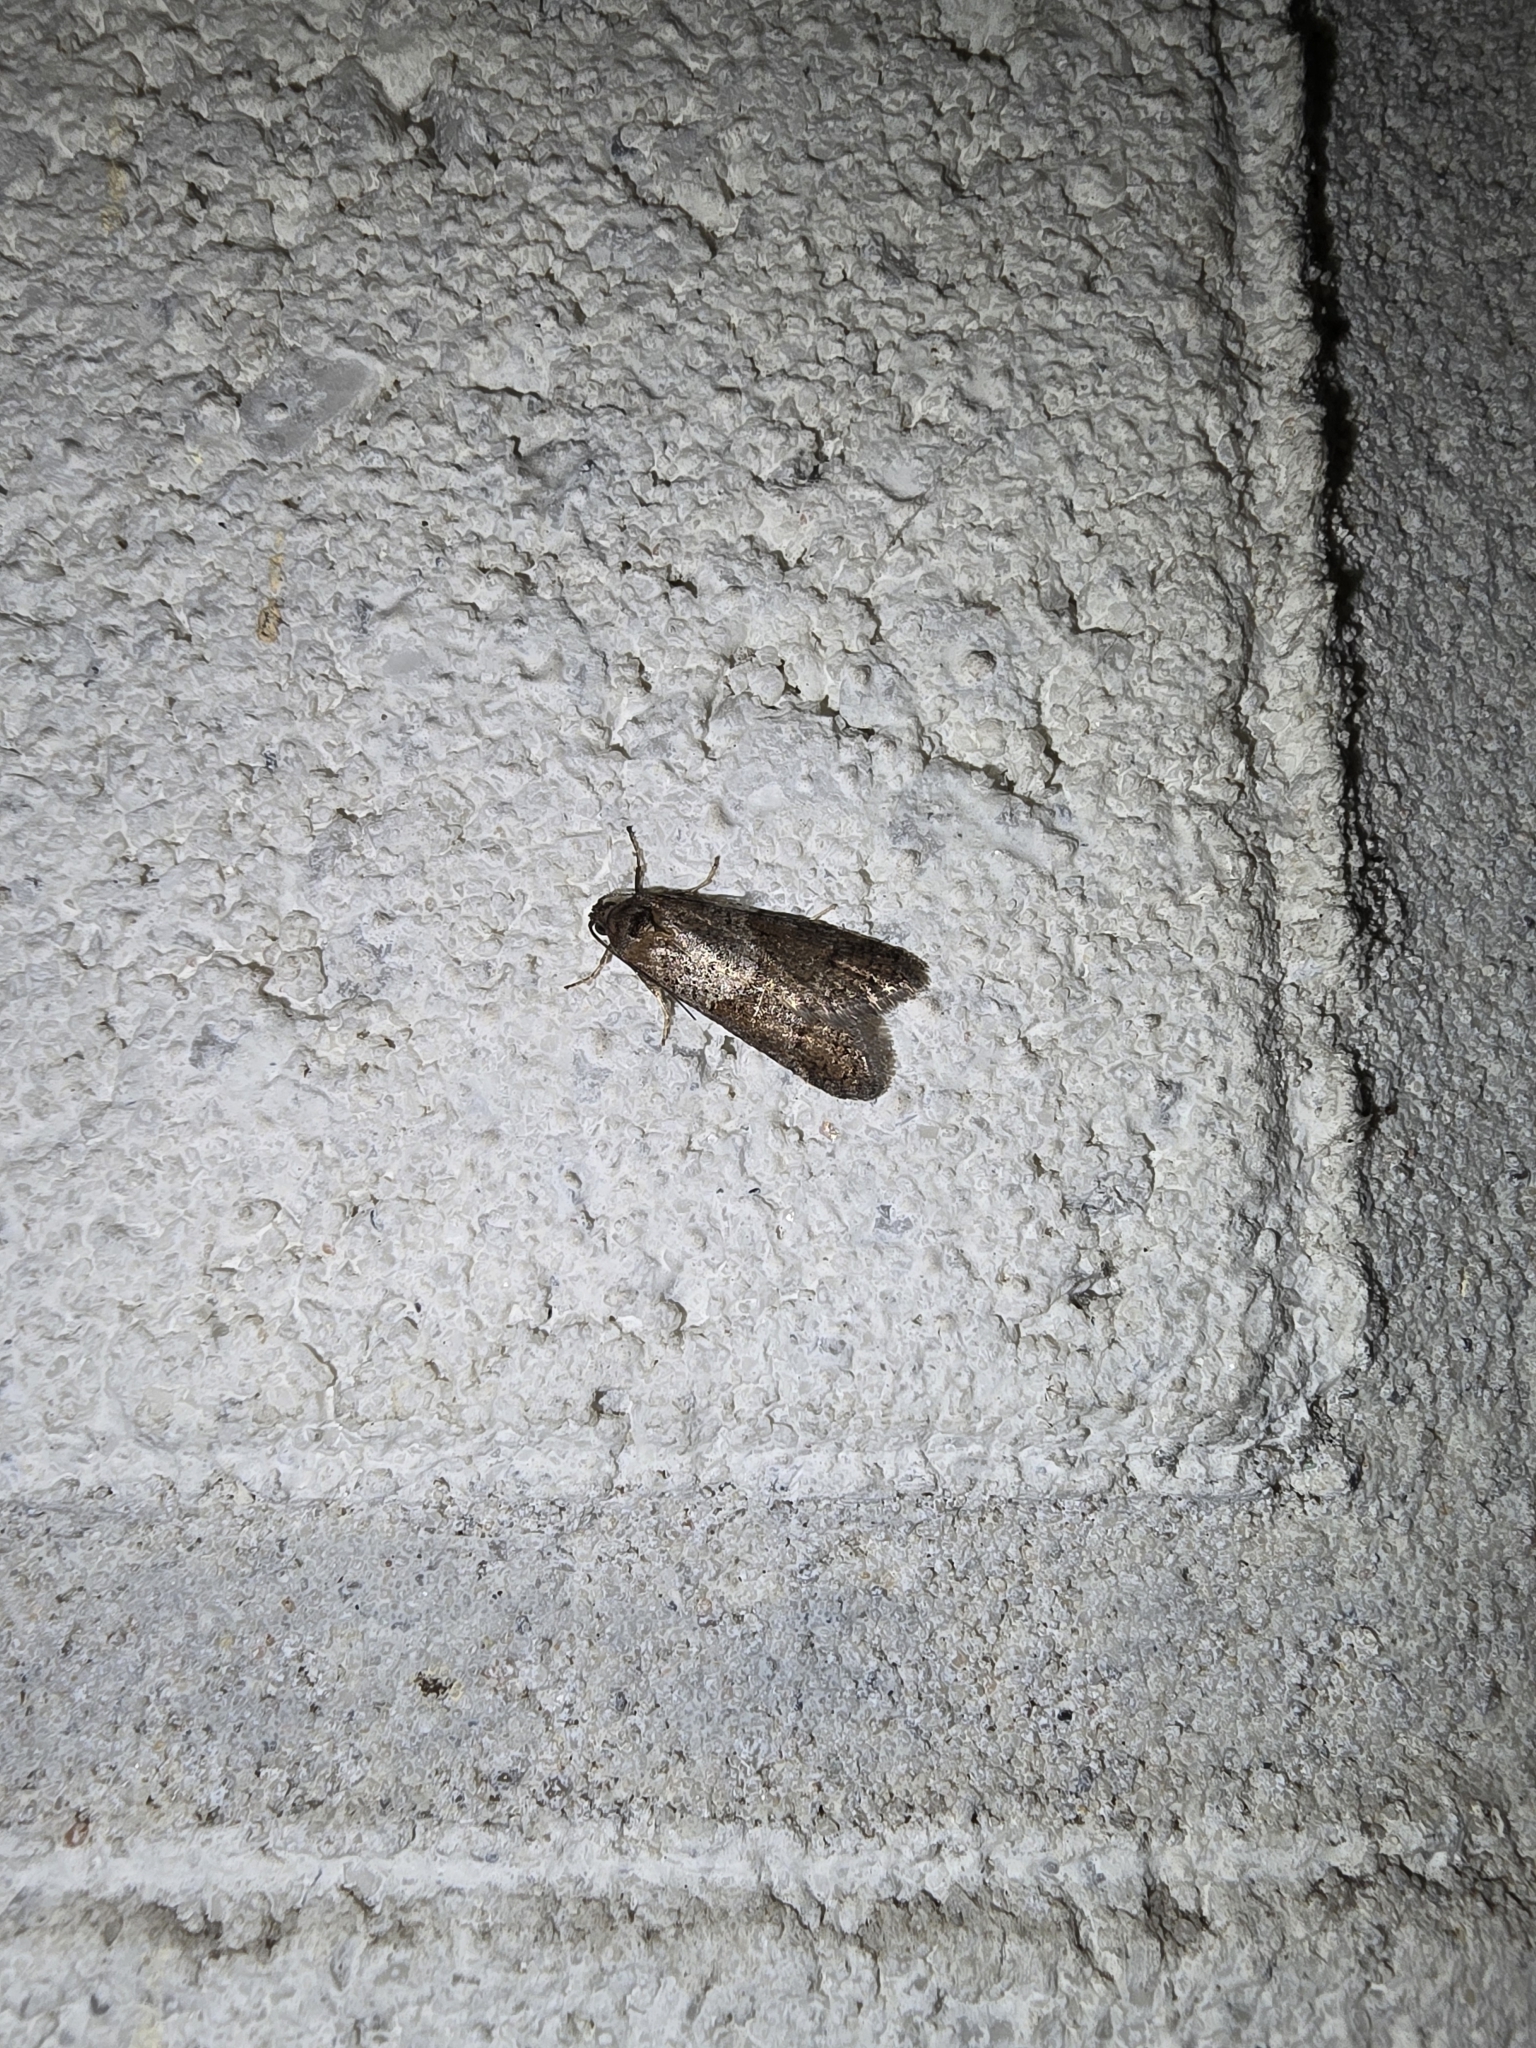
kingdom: Animalia
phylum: Arthropoda
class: Insecta
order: Lepidoptera
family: Tortricidae
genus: Tortricodes
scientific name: Tortricodes alternella
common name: Winter shade
